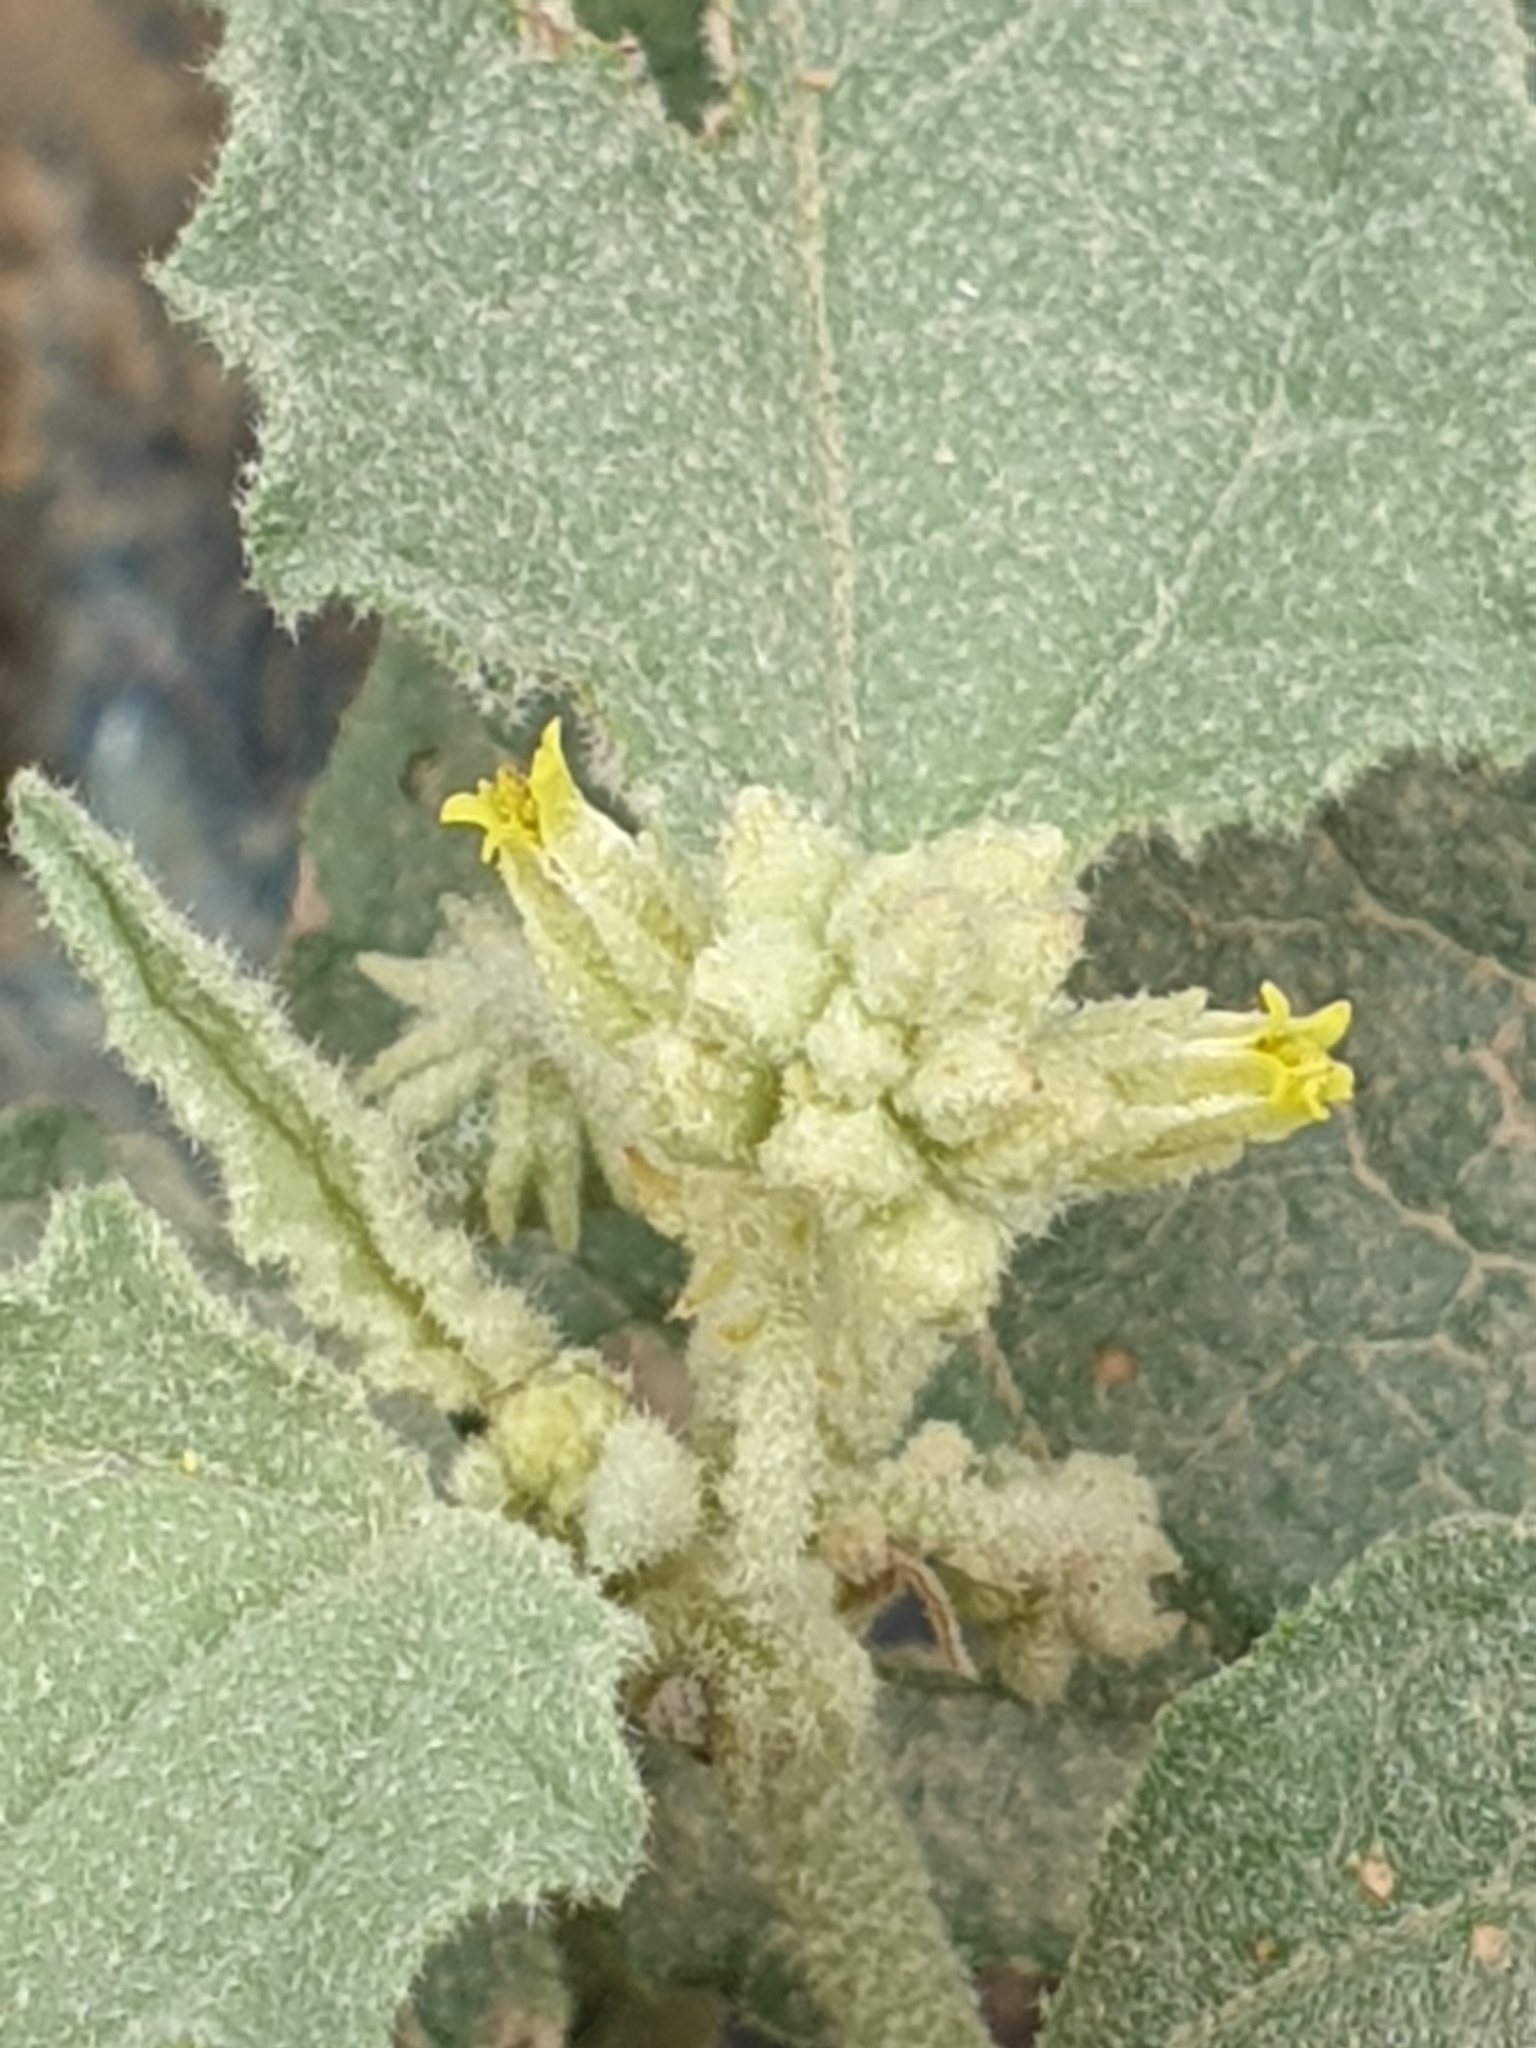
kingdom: Plantae
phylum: Tracheophyta
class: Magnoliopsida
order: Malpighiales
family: Euphorbiaceae
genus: Chrozophora
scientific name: Chrozophora oblongifolia
